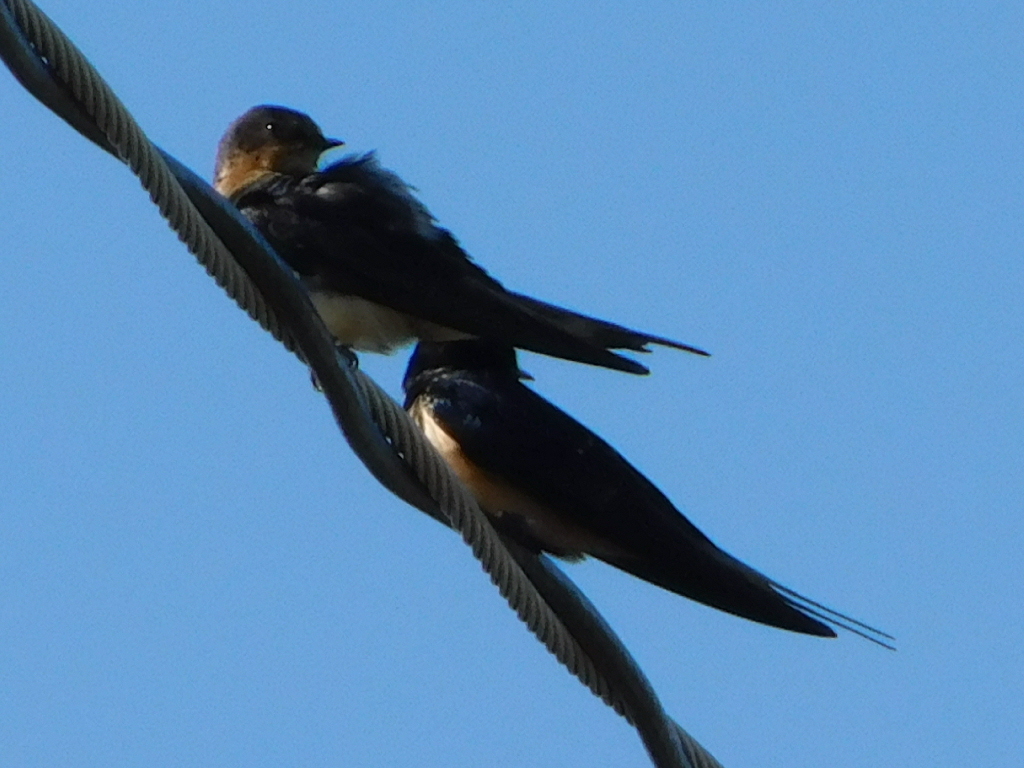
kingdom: Animalia
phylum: Chordata
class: Aves
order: Passeriformes
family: Hirundinidae
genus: Hirundo
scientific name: Hirundo rustica
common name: Barn swallow
